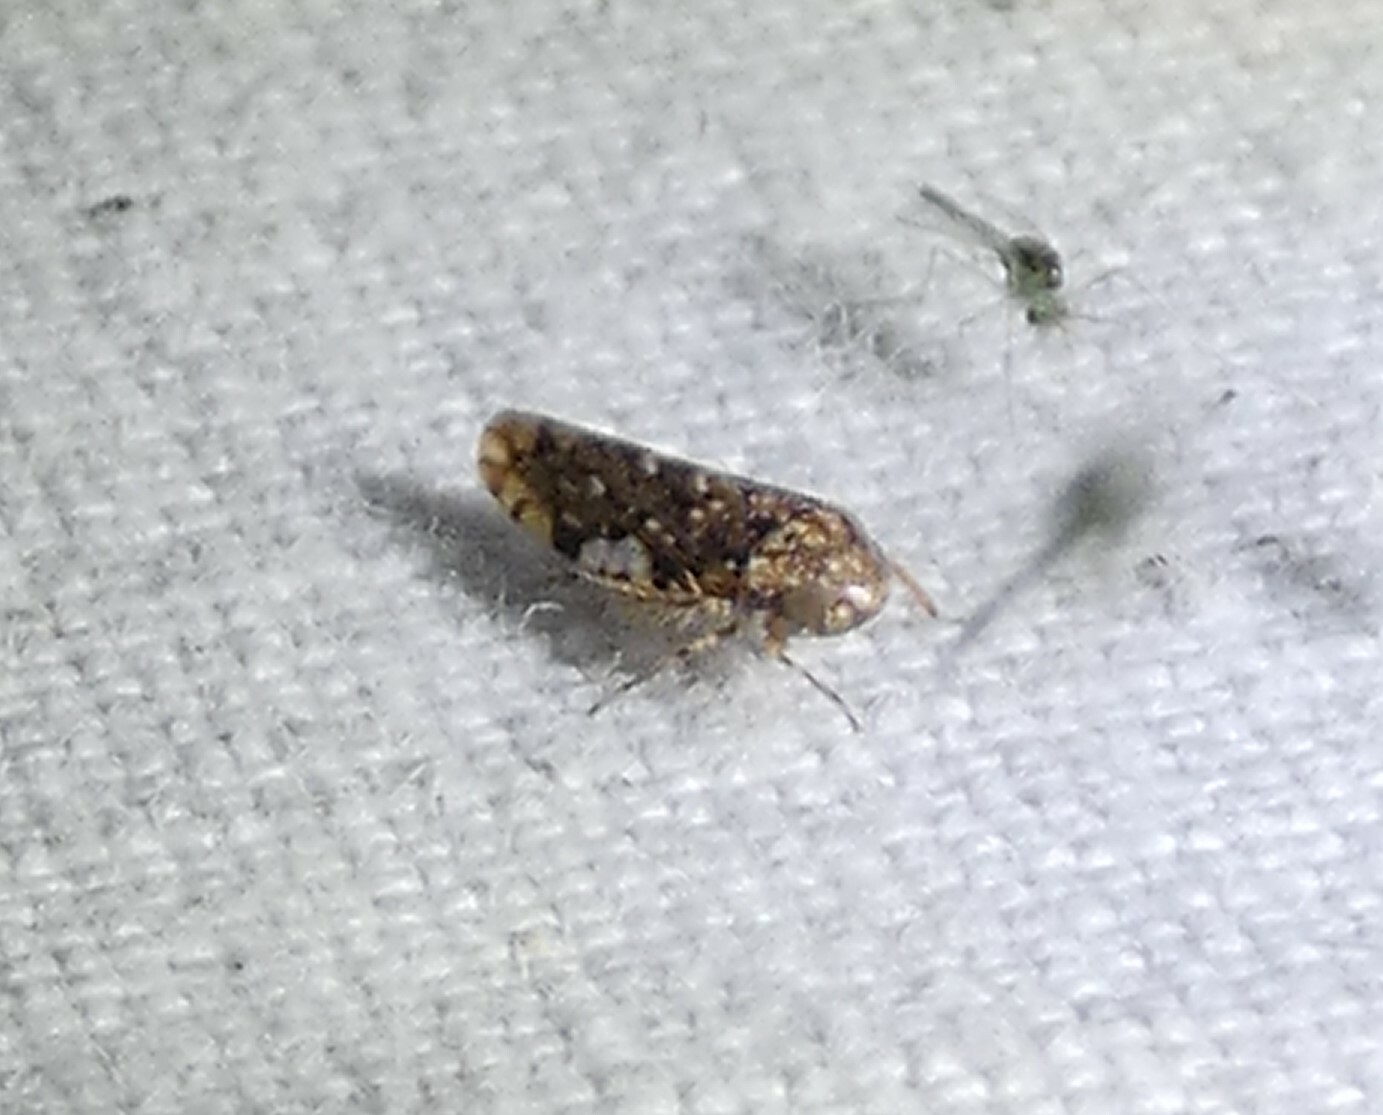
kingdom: Animalia
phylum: Arthropoda
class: Insecta
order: Hemiptera
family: Cicadellidae
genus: Xestocephalus
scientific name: Xestocephalus tessellatus
